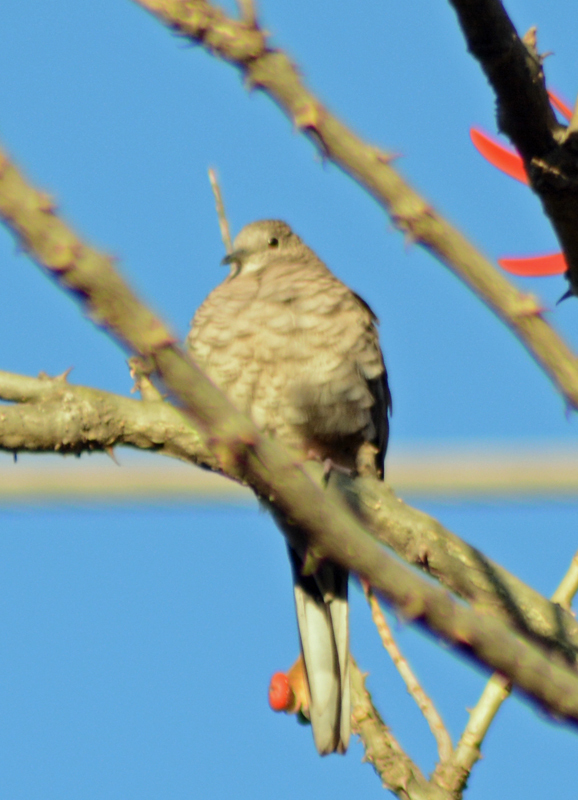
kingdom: Animalia
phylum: Chordata
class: Aves
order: Columbiformes
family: Columbidae
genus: Columbina
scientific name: Columbina inca
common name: Inca dove
